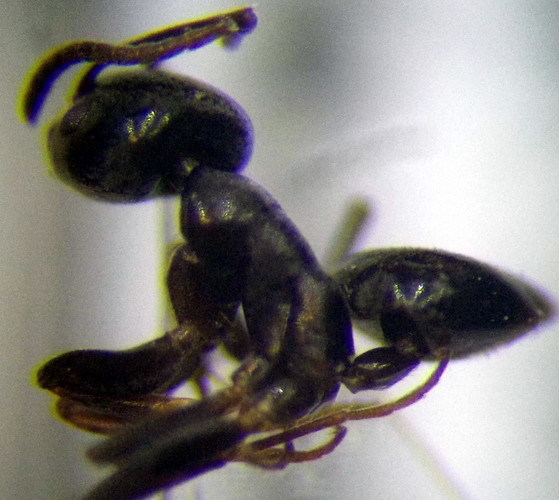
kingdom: Animalia
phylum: Arthropoda
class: Insecta
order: Hymenoptera
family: Formicidae
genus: Tapinoma
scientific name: Tapinoma erraticum
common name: Erratic ant
